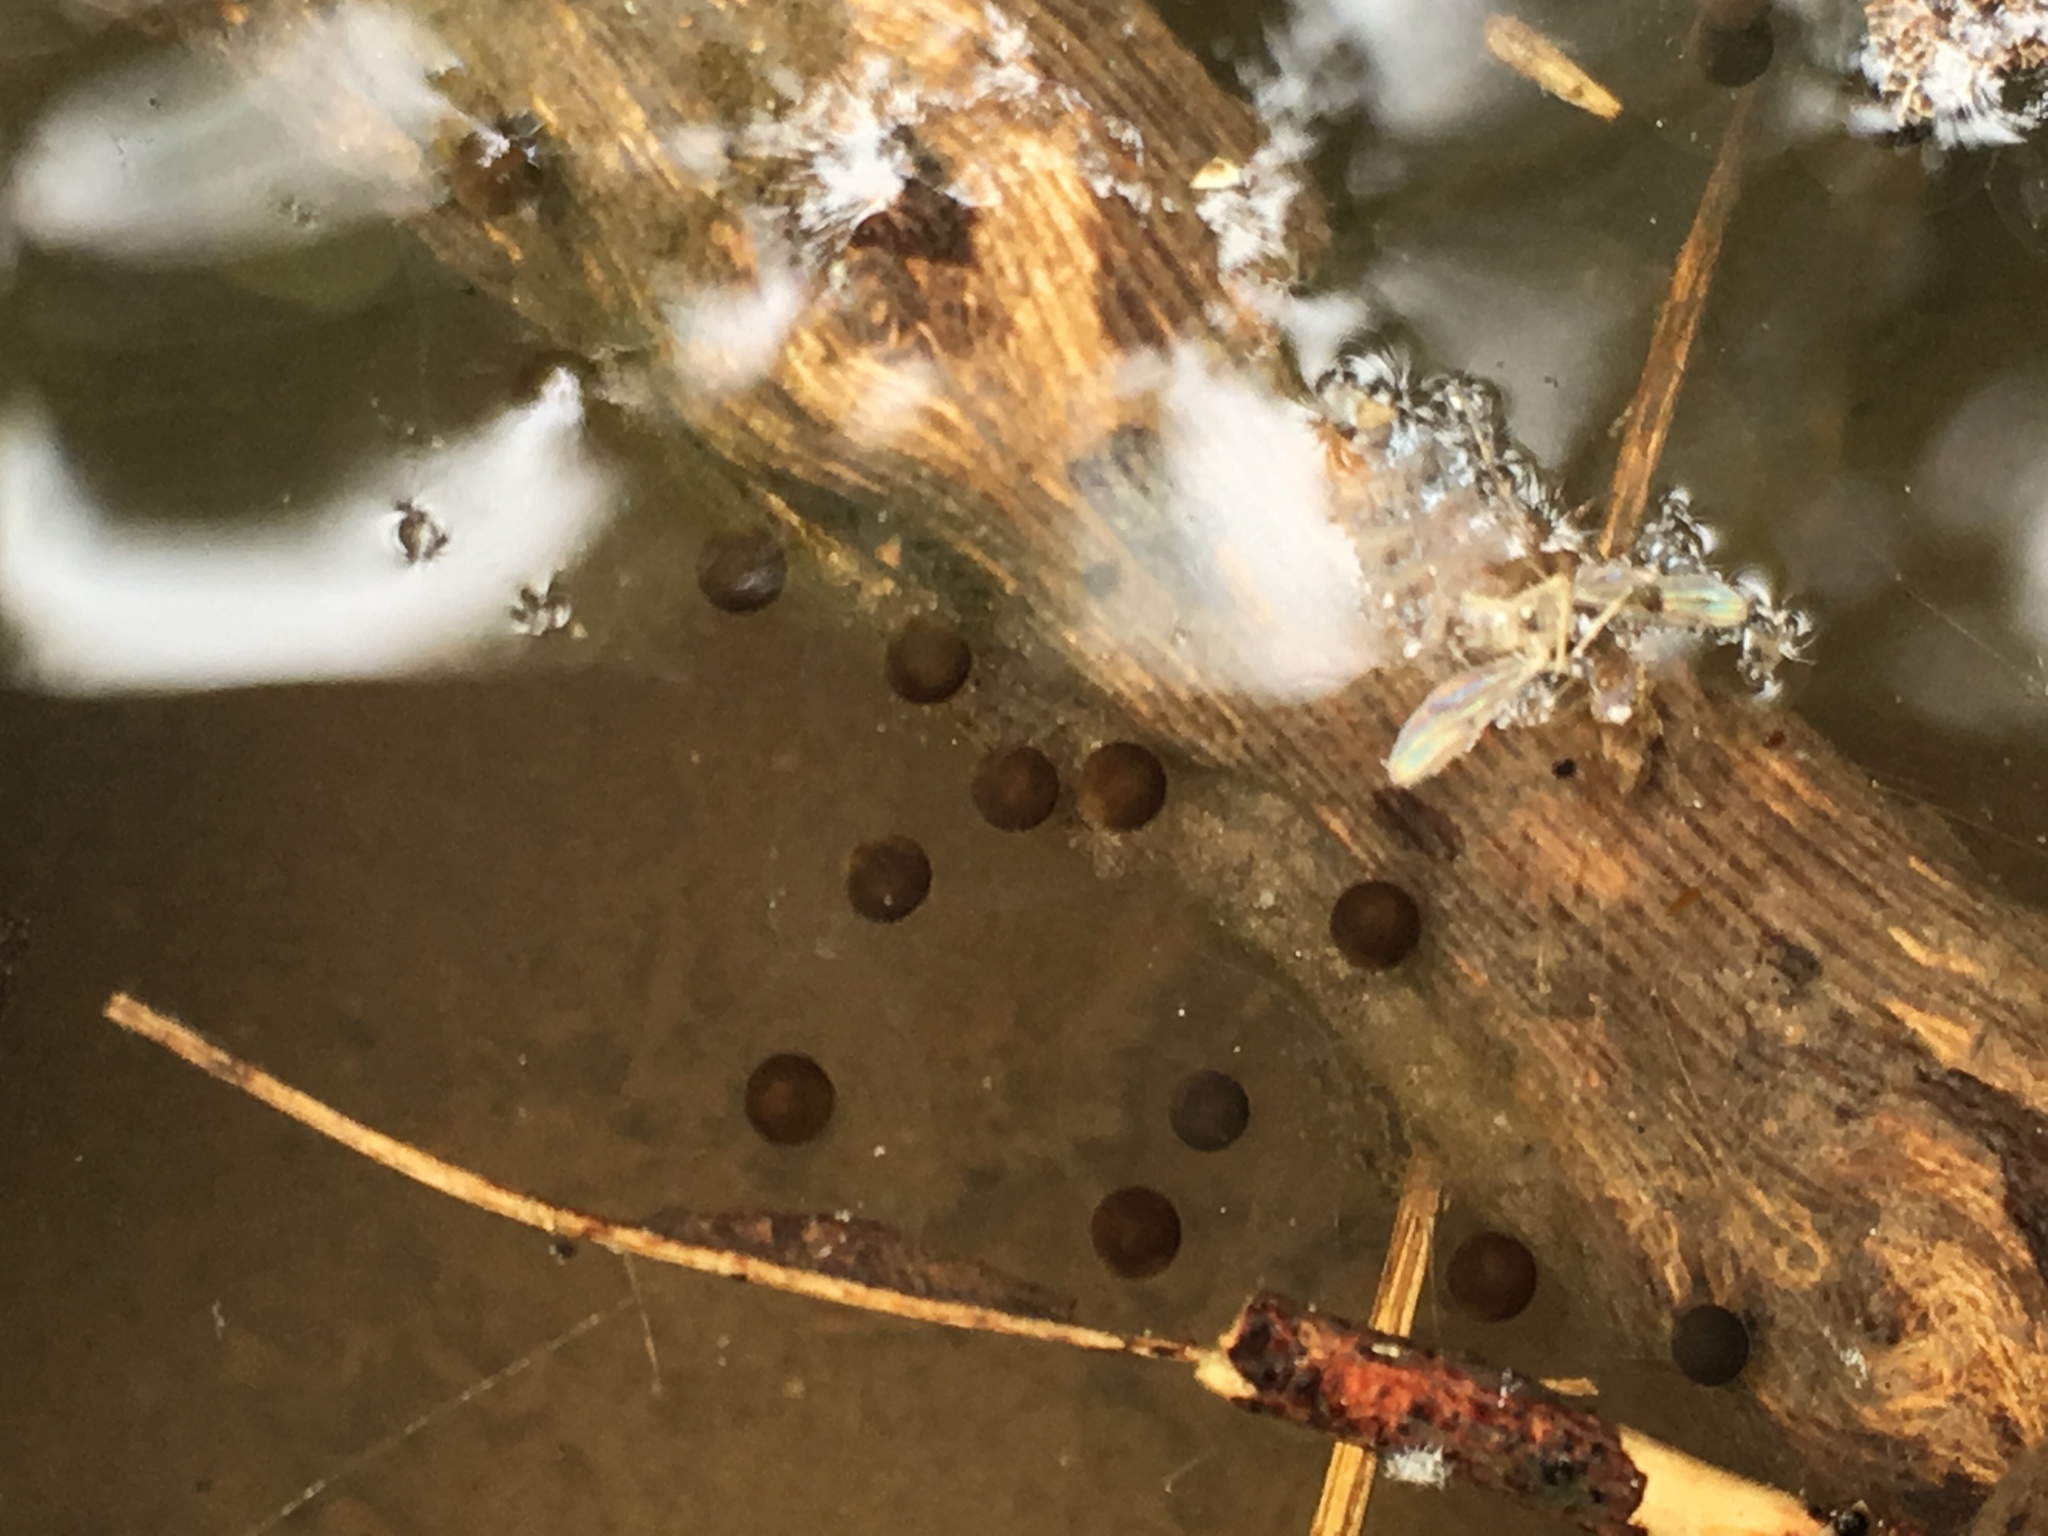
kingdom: Animalia
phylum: Chordata
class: Amphibia
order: Anura
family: Hylidae
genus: Dryophytes
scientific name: Dryophytes versicolor
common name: Gray treefrog
